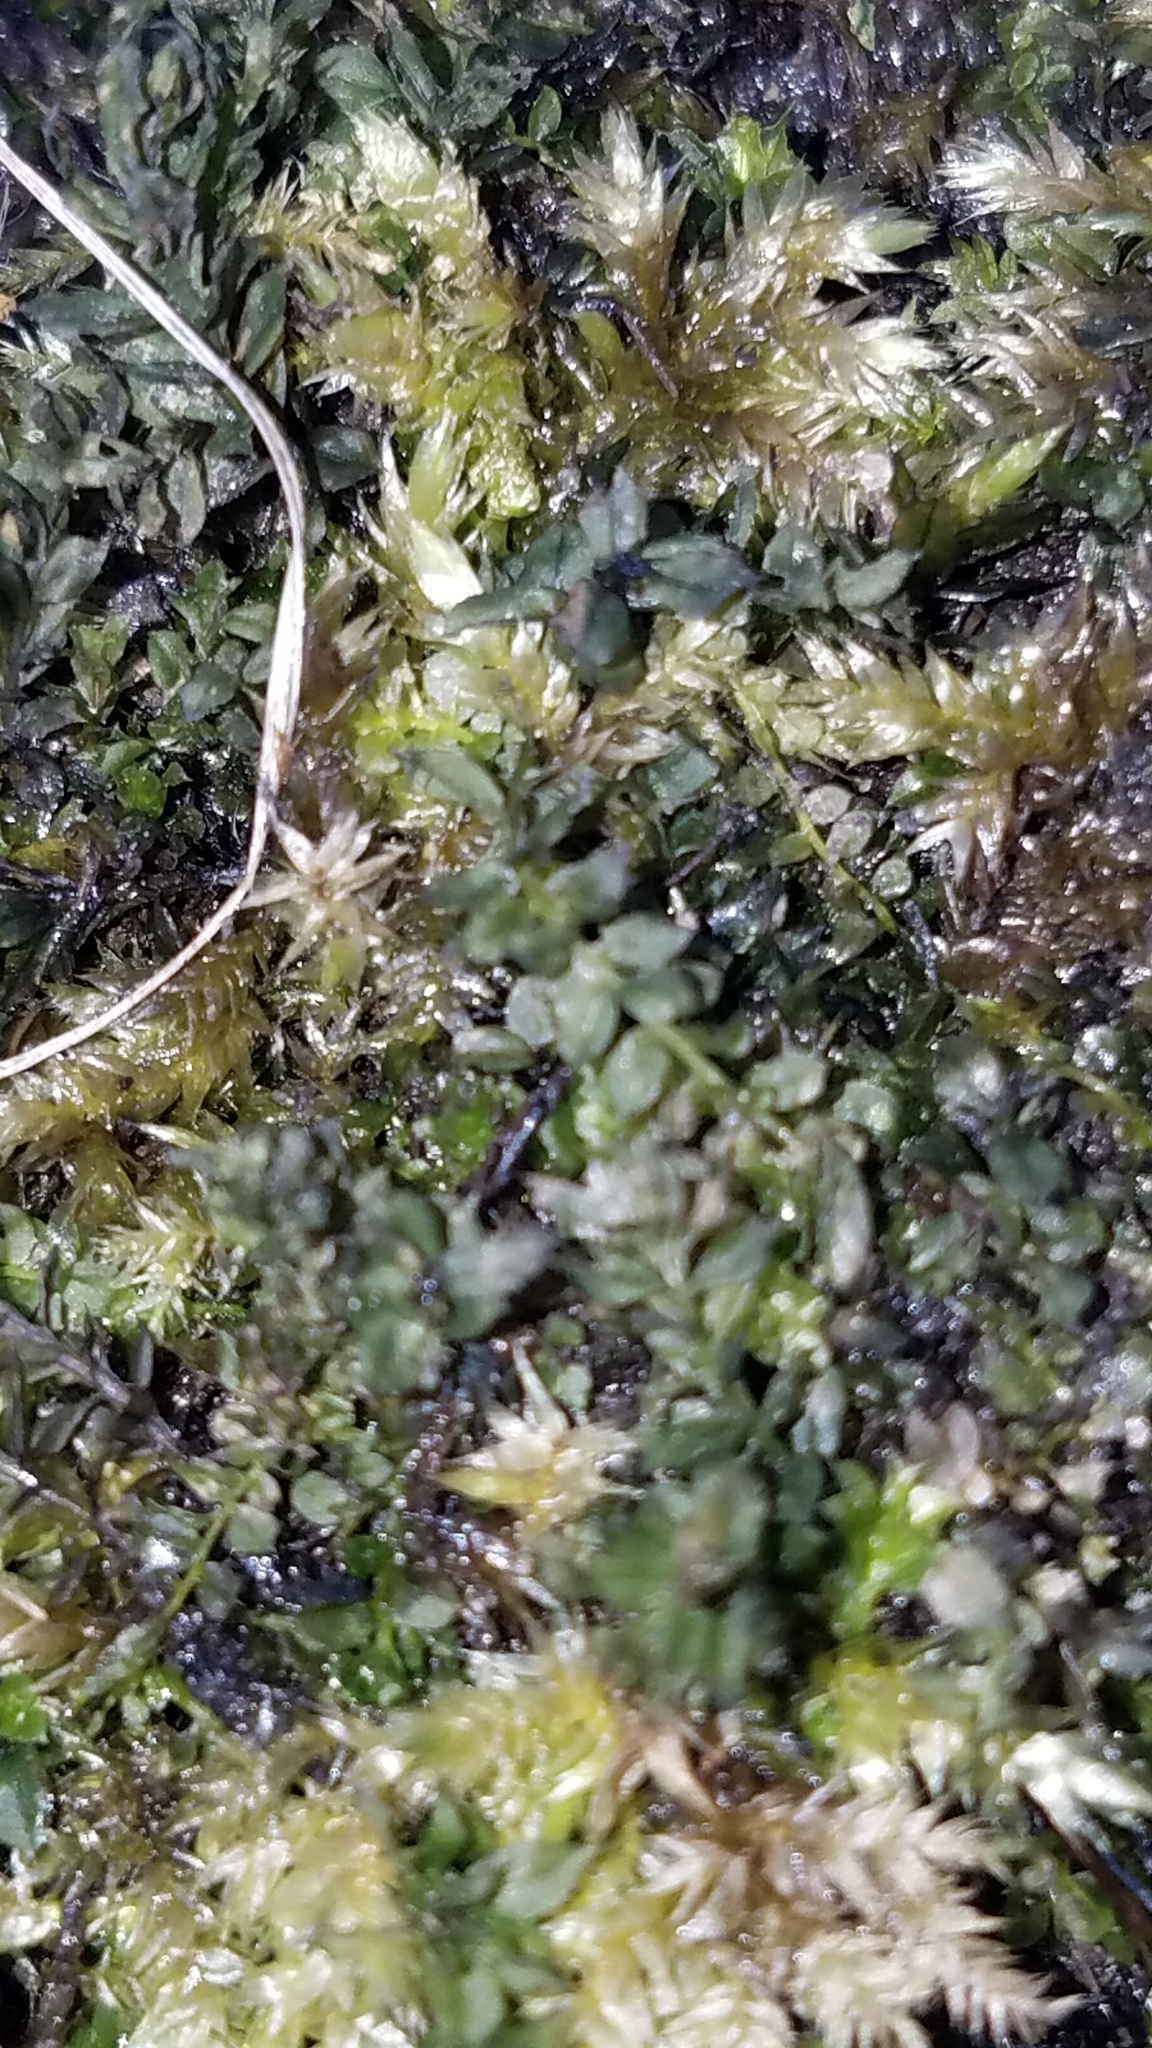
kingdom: Plantae
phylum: Bryophyta
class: Bryopsida
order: Bryales
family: Mniaceae
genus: Plagiomnium
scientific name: Plagiomnium cuspidatum
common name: Woodsy leafy moss
